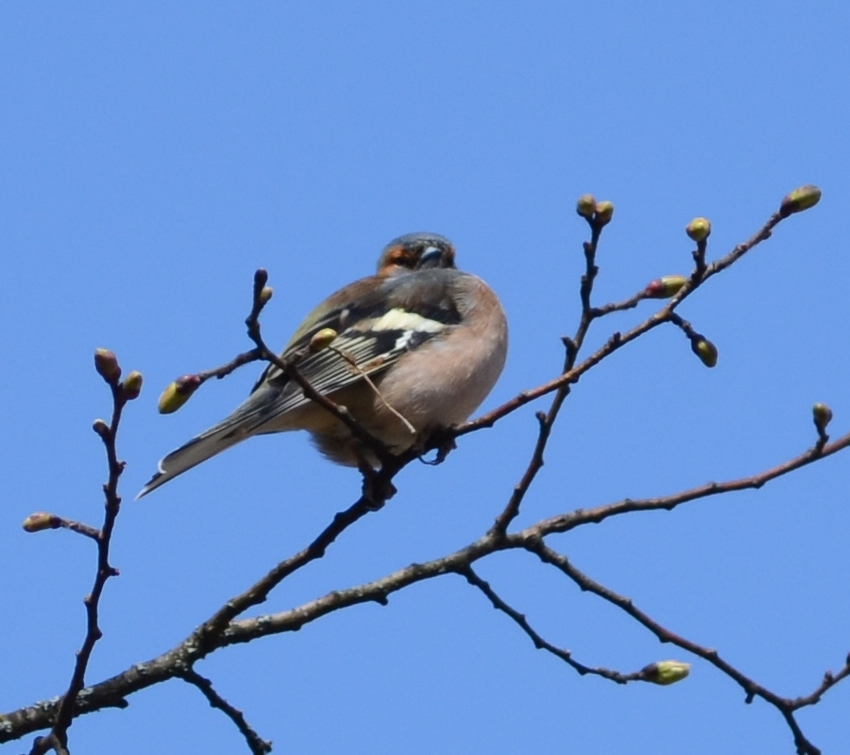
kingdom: Animalia
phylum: Chordata
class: Aves
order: Passeriformes
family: Fringillidae
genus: Fringilla
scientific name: Fringilla coelebs
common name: Common chaffinch
